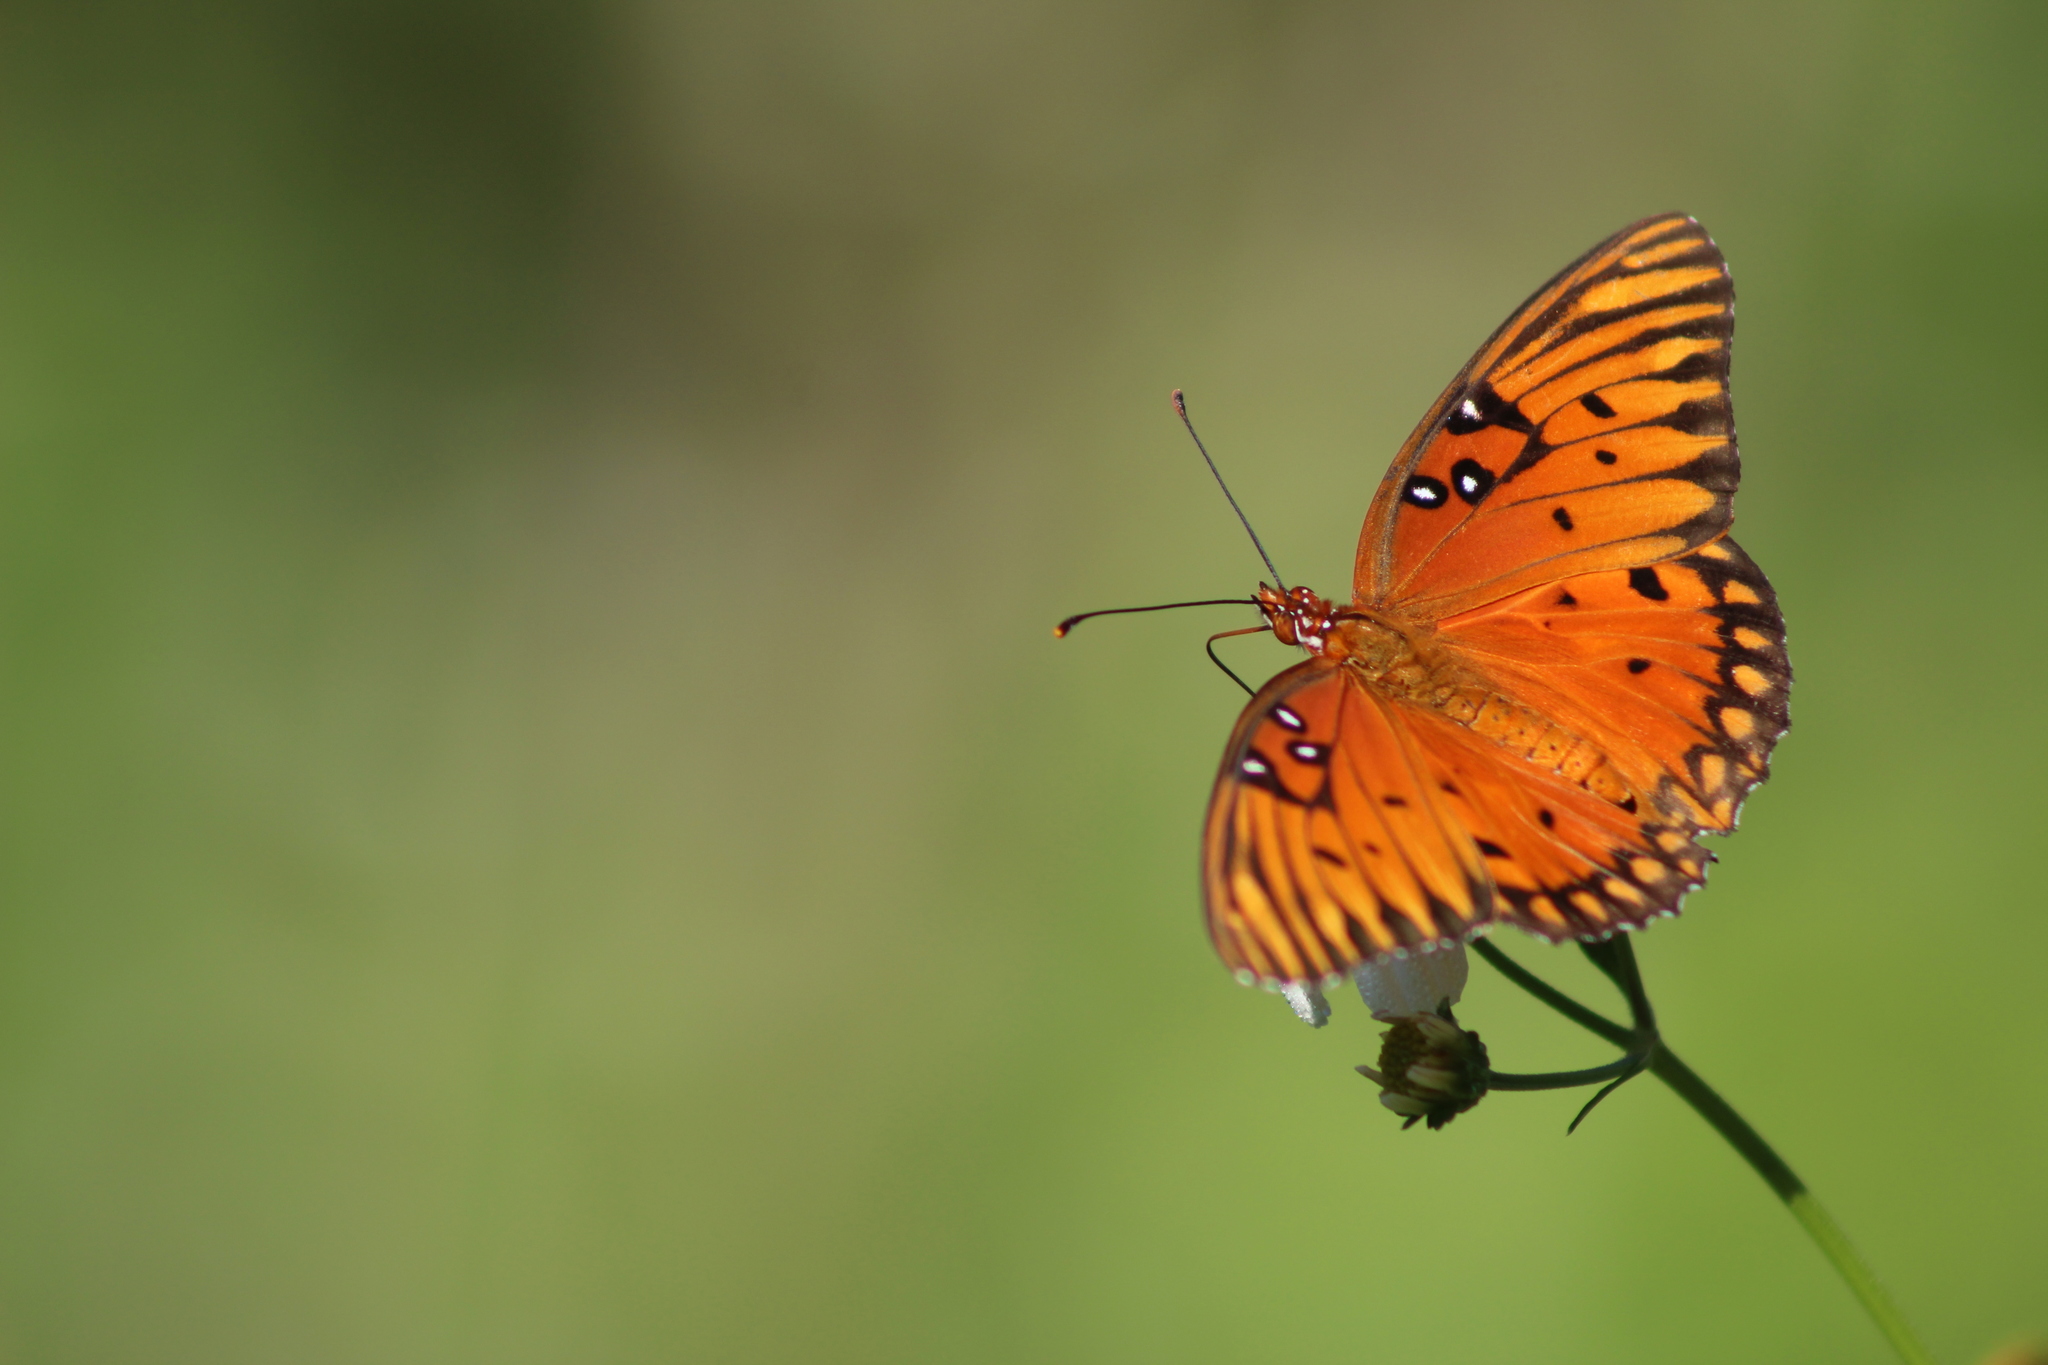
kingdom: Animalia
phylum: Arthropoda
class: Insecta
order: Lepidoptera
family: Nymphalidae
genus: Dione
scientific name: Dione vanillae
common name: Gulf fritillary
